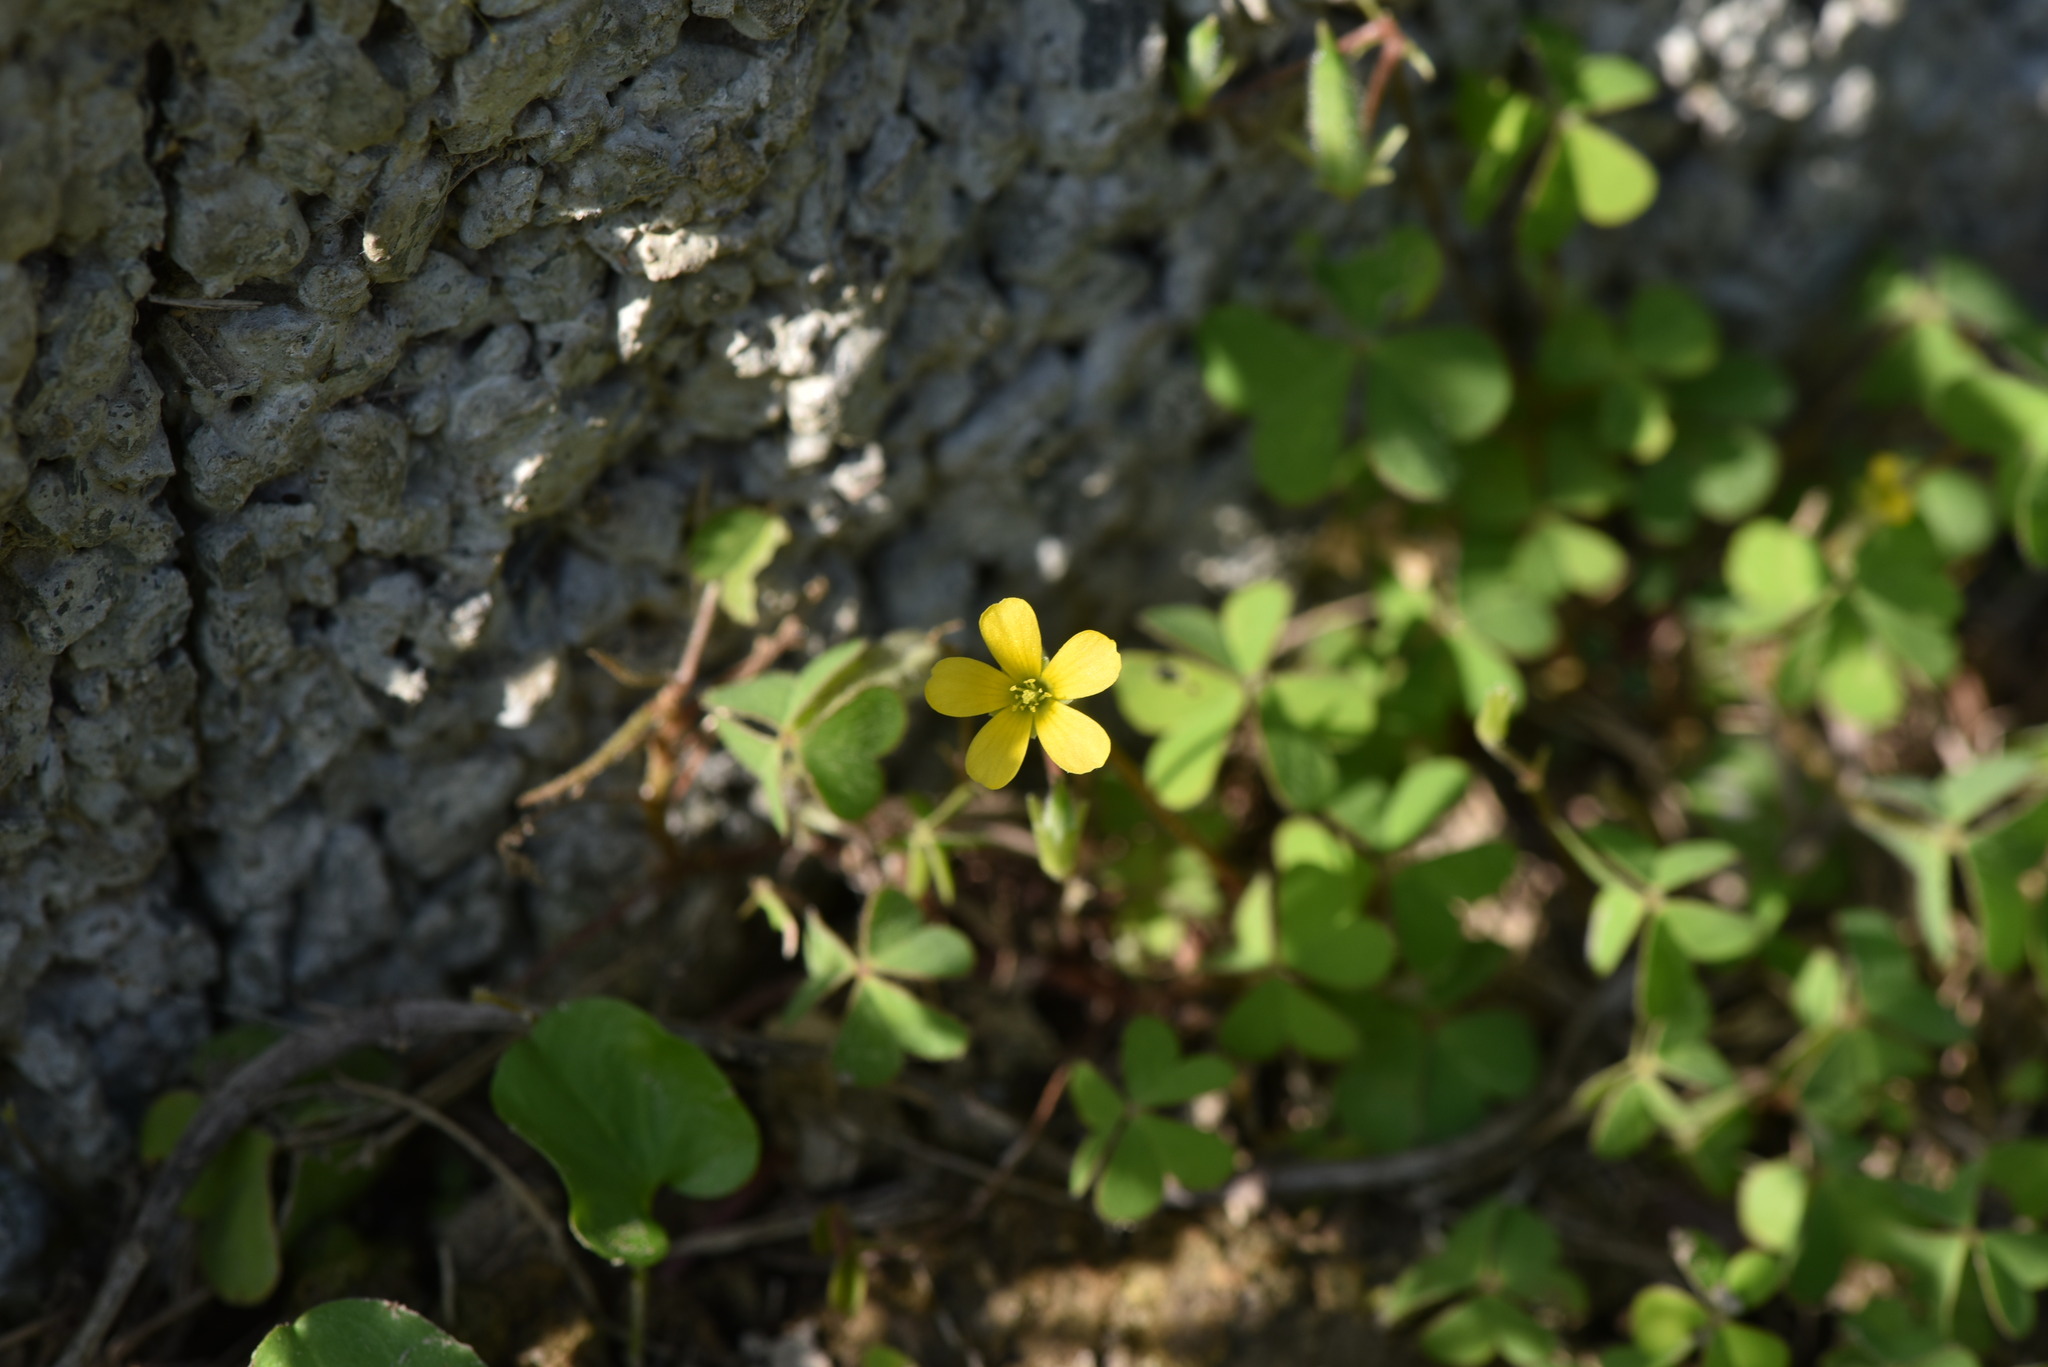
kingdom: Plantae
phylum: Tracheophyta
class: Magnoliopsida
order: Oxalidales
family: Oxalidaceae
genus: Oxalis
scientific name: Oxalis corniculata
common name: Procumbent yellow-sorrel
